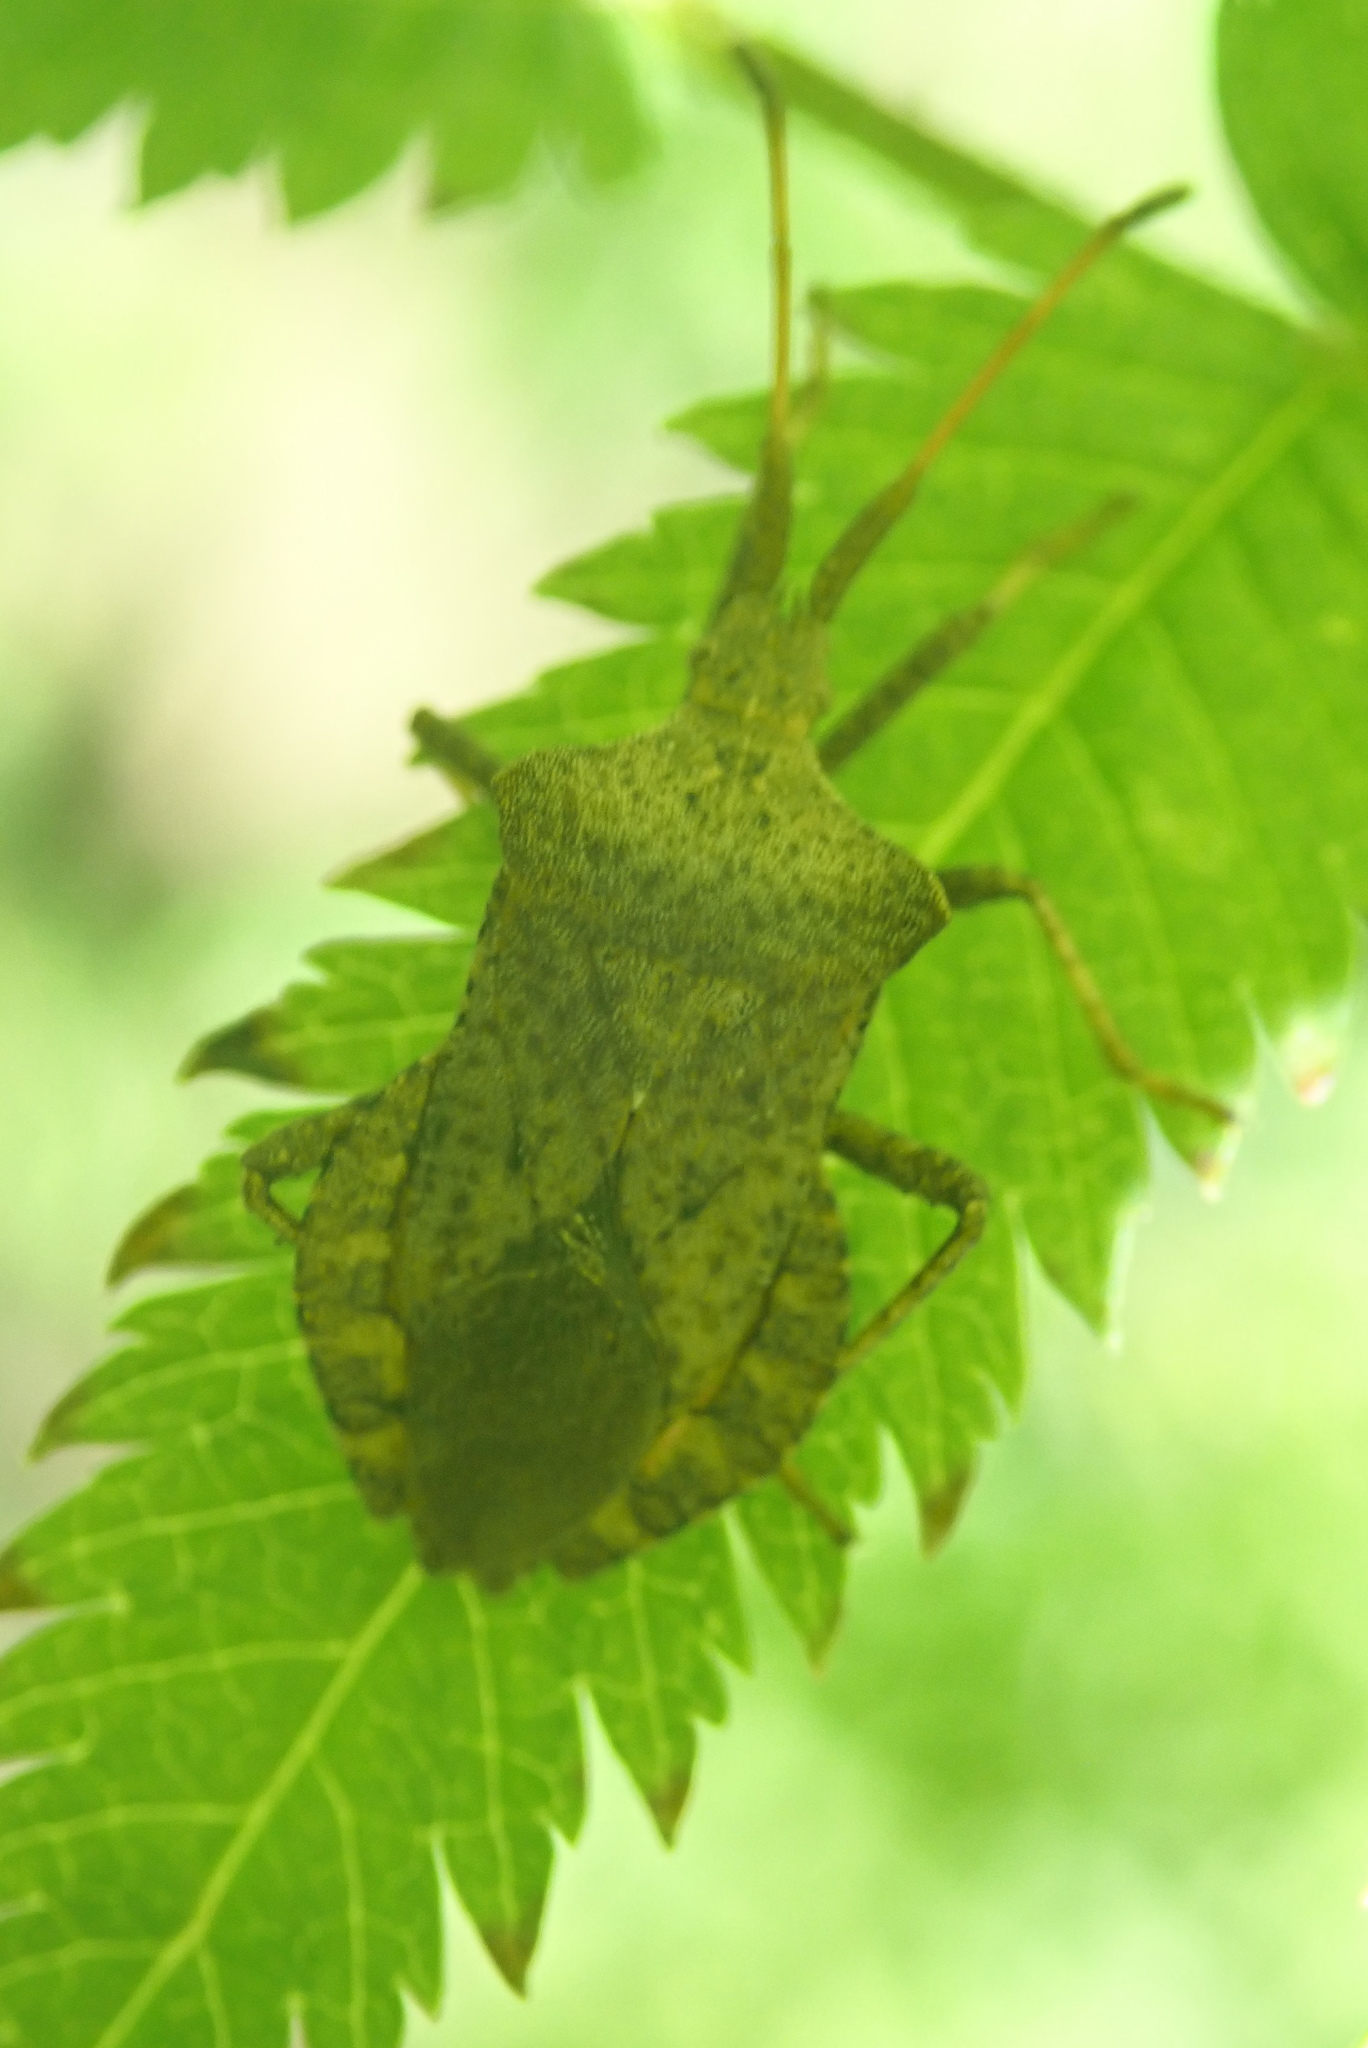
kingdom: Animalia
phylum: Arthropoda
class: Insecta
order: Hemiptera
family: Coreidae
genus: Coreus
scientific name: Coreus marginatus
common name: Dock bug
